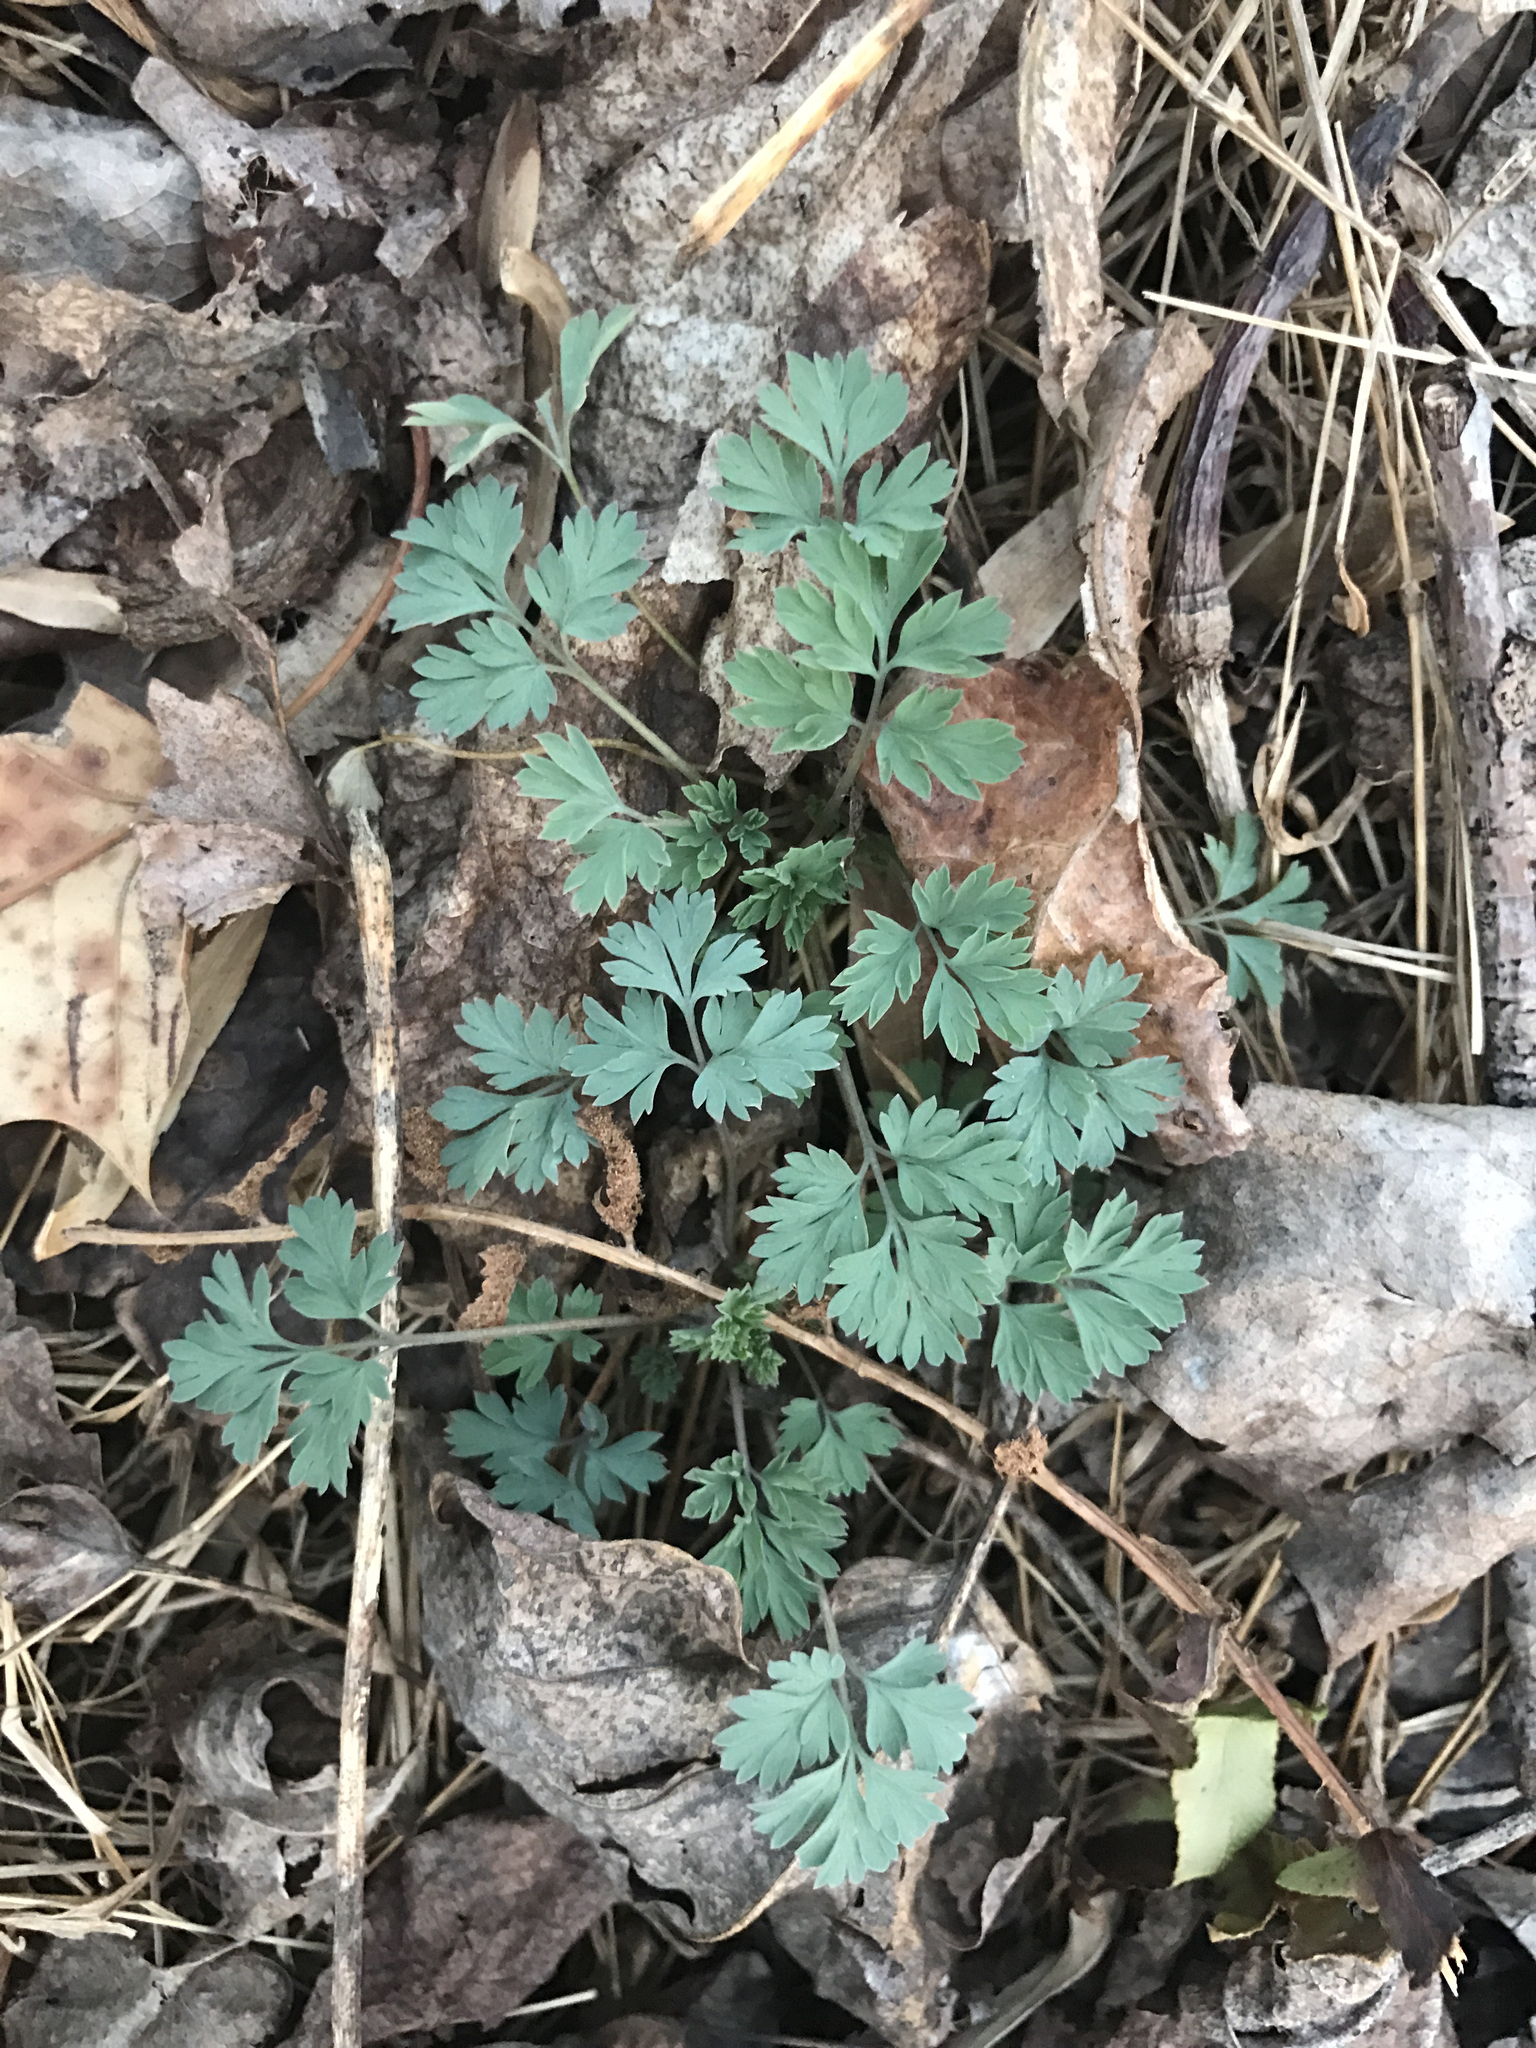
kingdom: Plantae
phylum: Tracheophyta
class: Magnoliopsida
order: Ranunculales
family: Papaveraceae
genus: Dicentra
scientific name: Dicentra cucullaria
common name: Dutchman's breeches
